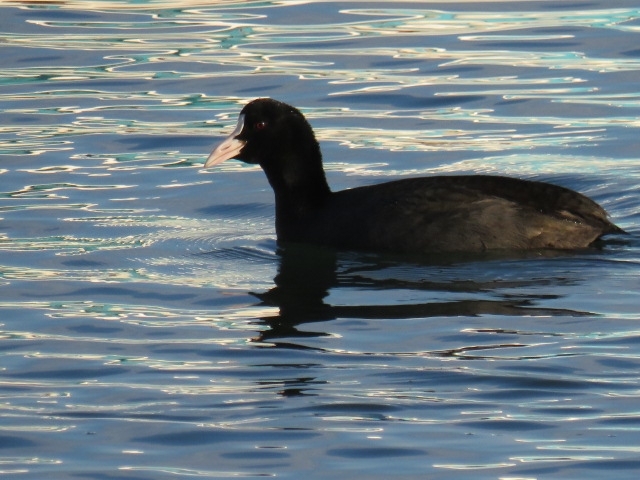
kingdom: Animalia
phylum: Chordata
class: Aves
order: Gruiformes
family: Rallidae
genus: Fulica
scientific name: Fulica atra
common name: Eurasian coot
